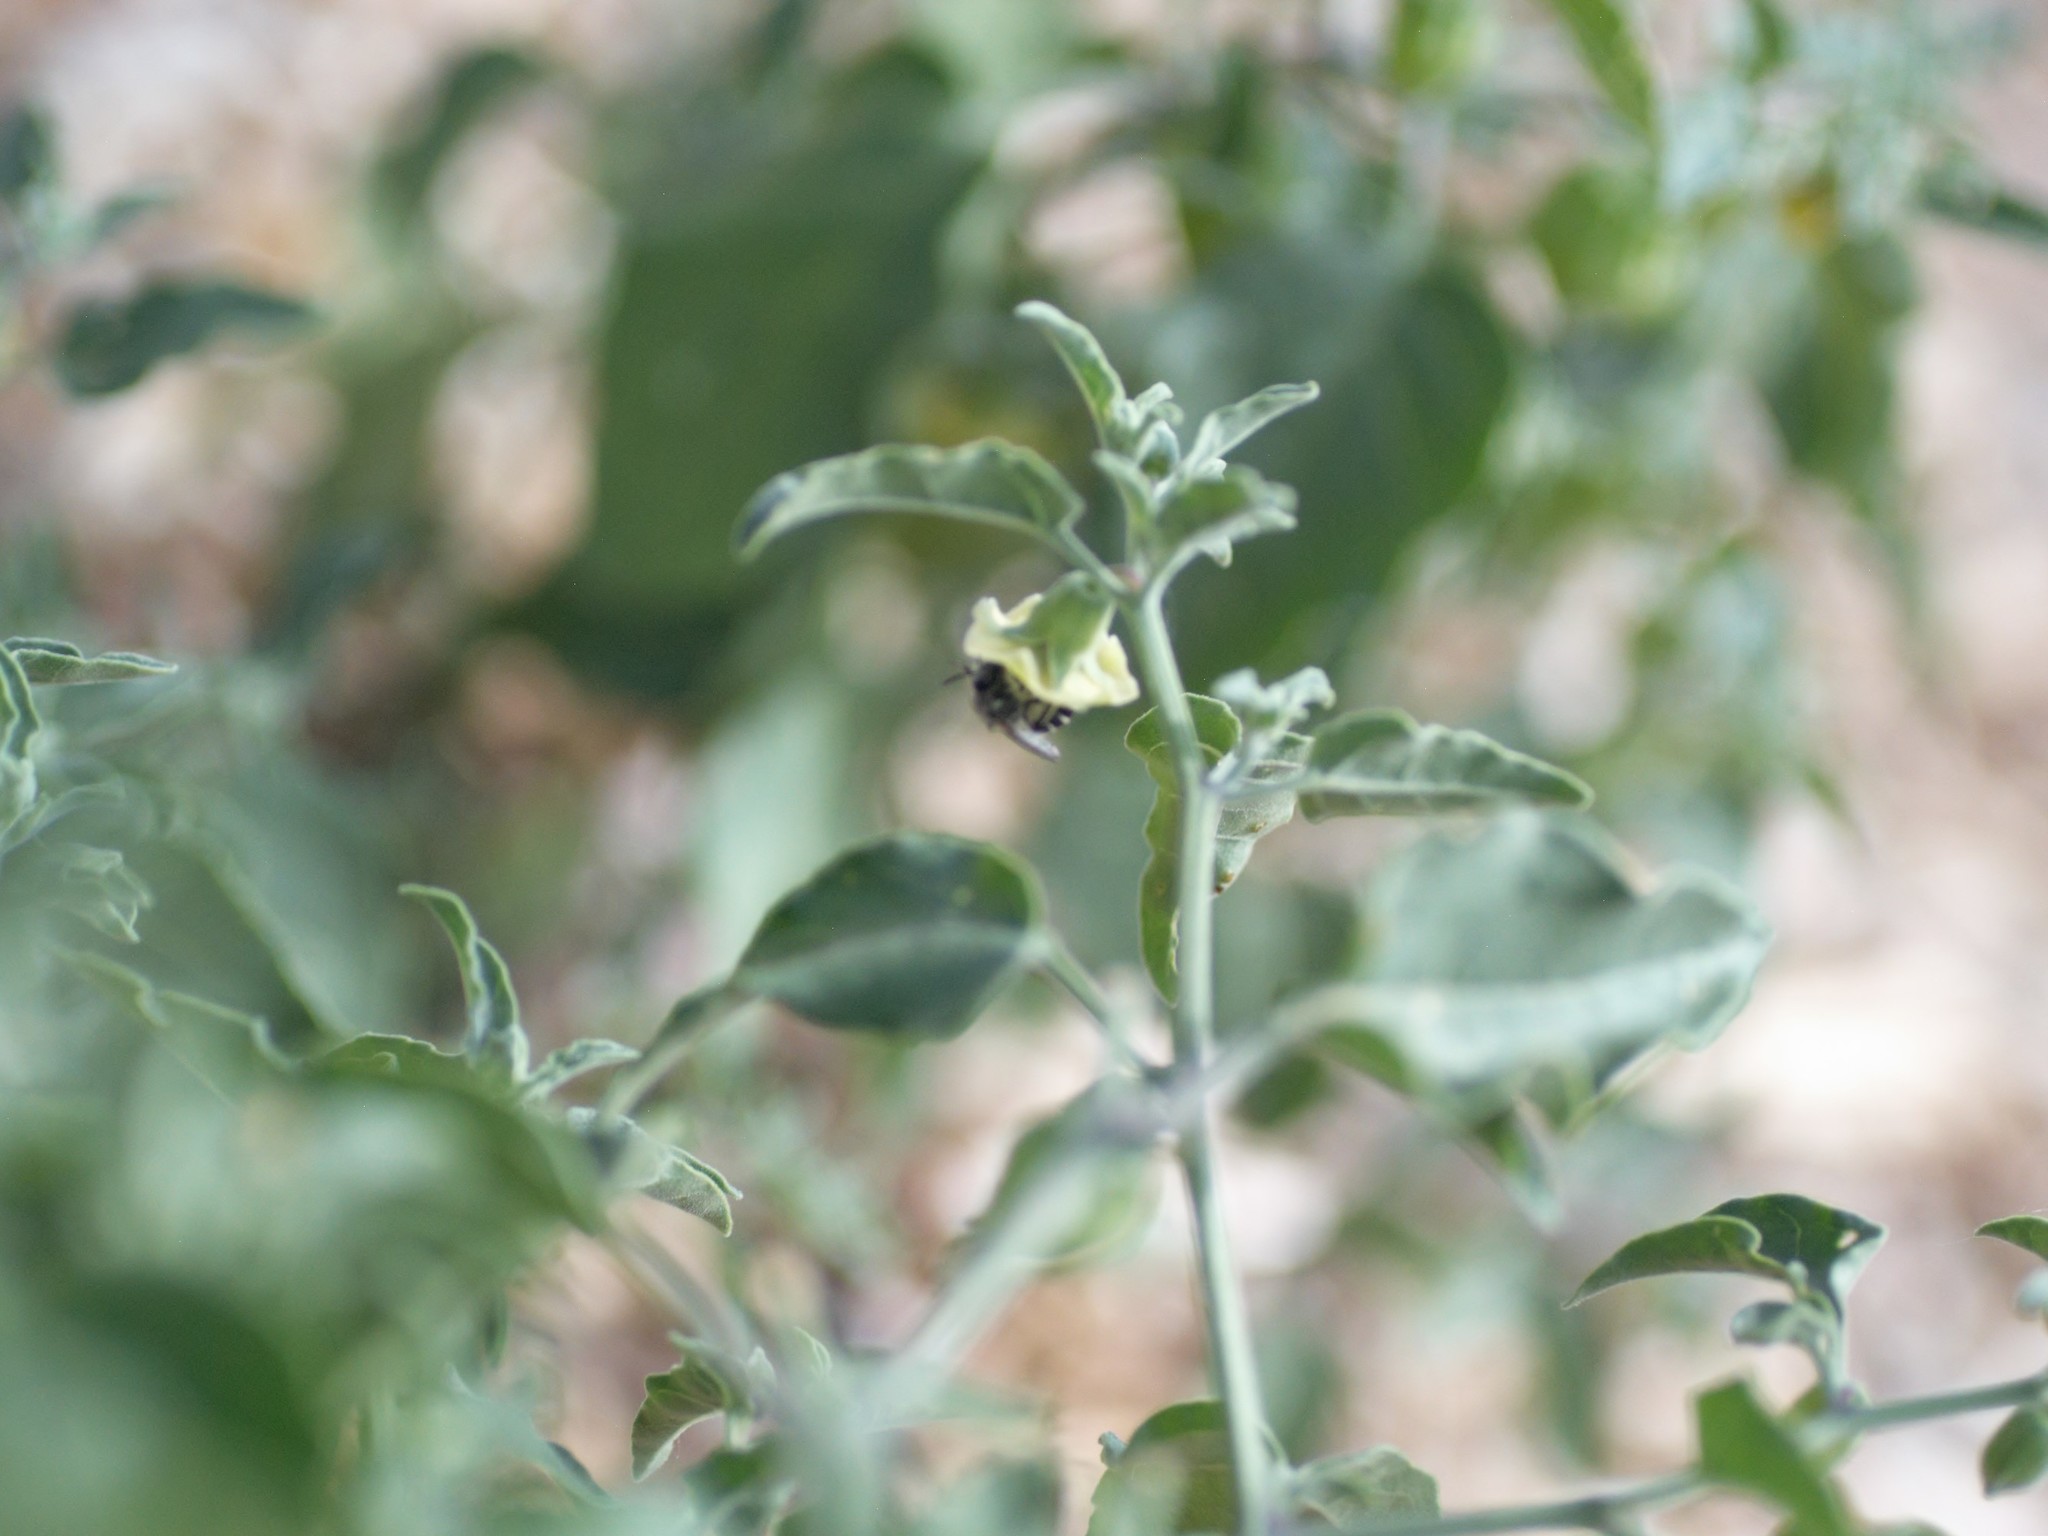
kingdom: Animalia
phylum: Arthropoda
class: Insecta
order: Hymenoptera
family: Colletidae
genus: Colletes
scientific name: Colletes
